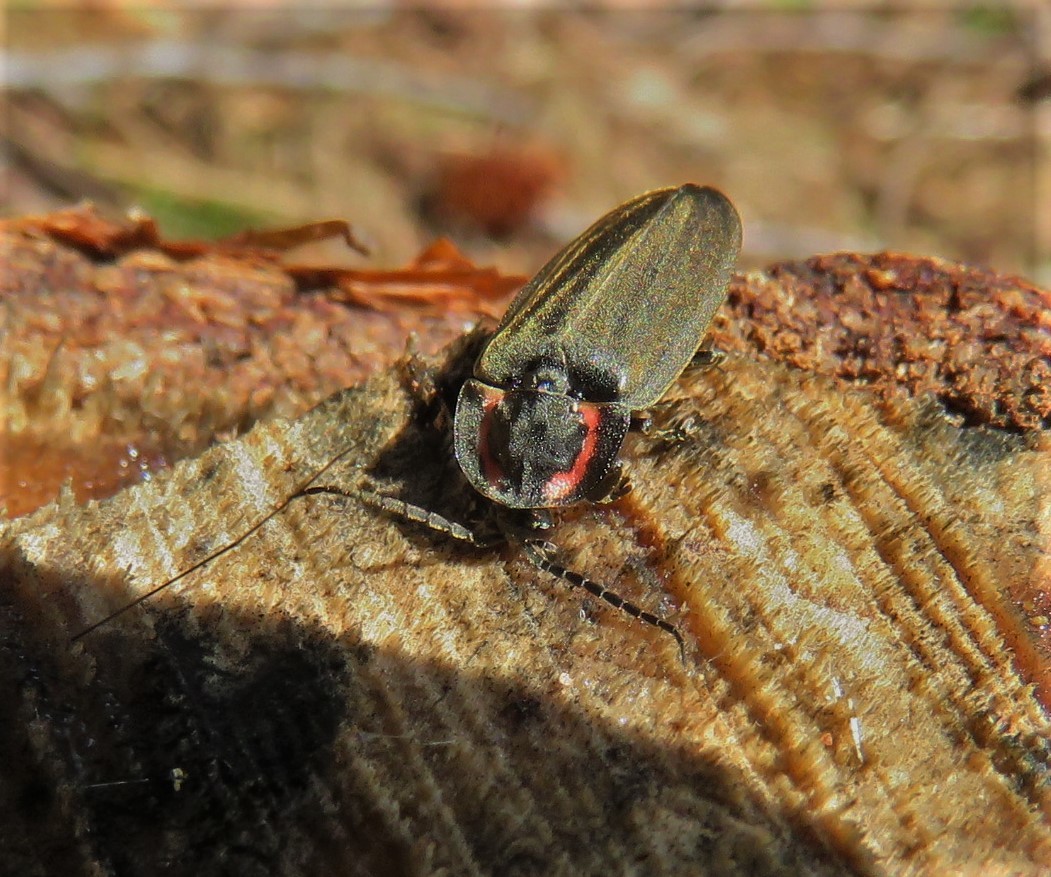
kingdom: Animalia
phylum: Arthropoda
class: Insecta
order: Coleoptera
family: Lampyridae
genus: Photinus
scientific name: Photinus corrusca
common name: Winter firefly
